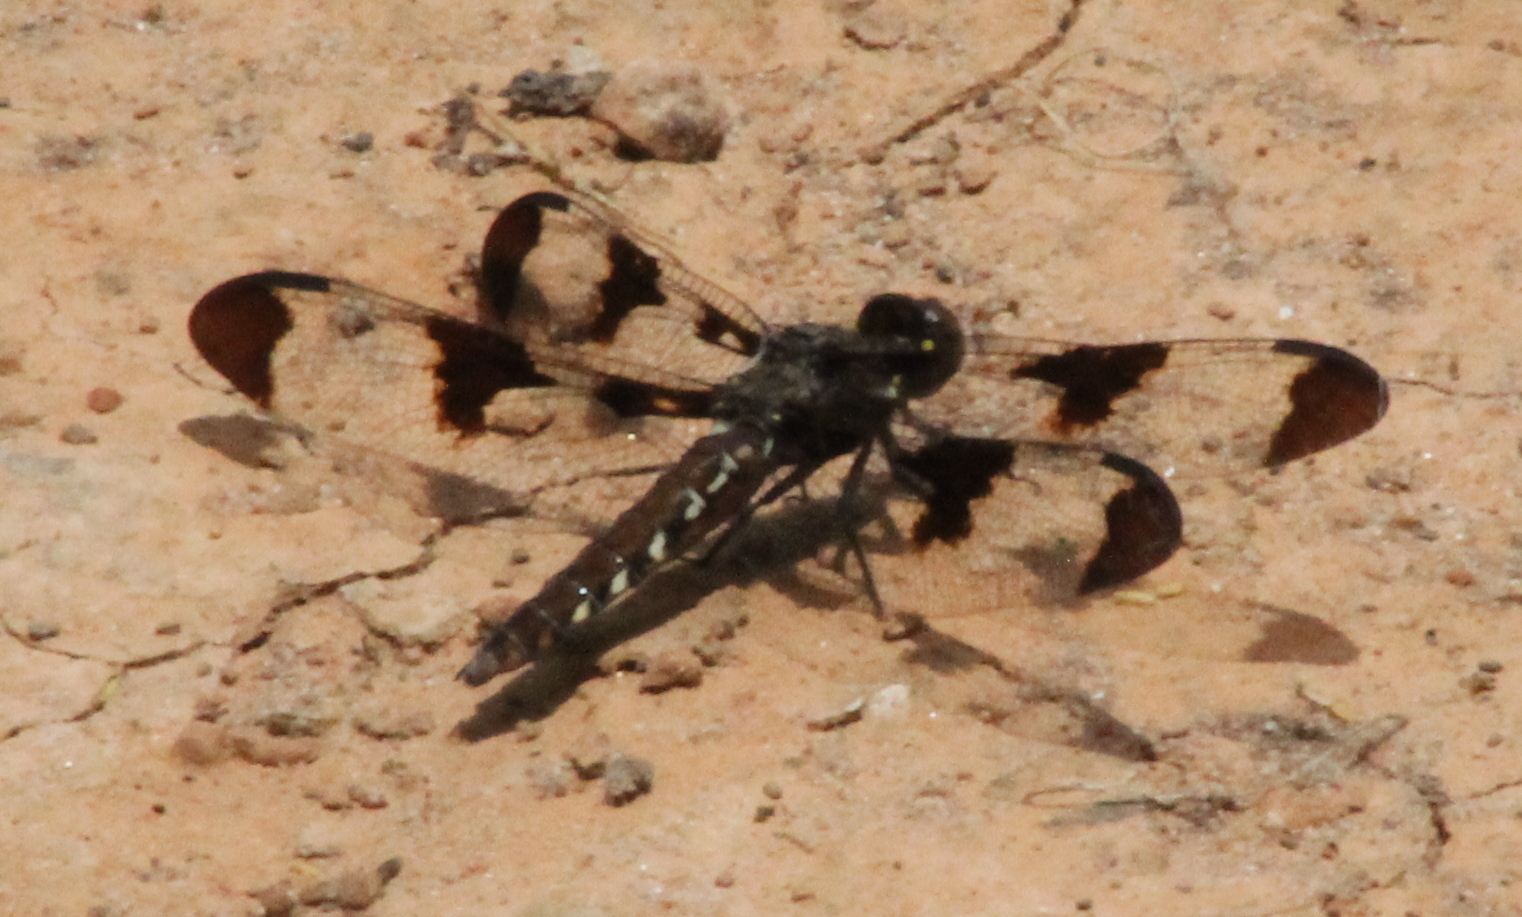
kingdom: Animalia
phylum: Arthropoda
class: Insecta
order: Odonata
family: Libellulidae
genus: Plathemis
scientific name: Plathemis lydia
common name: Common whitetail
